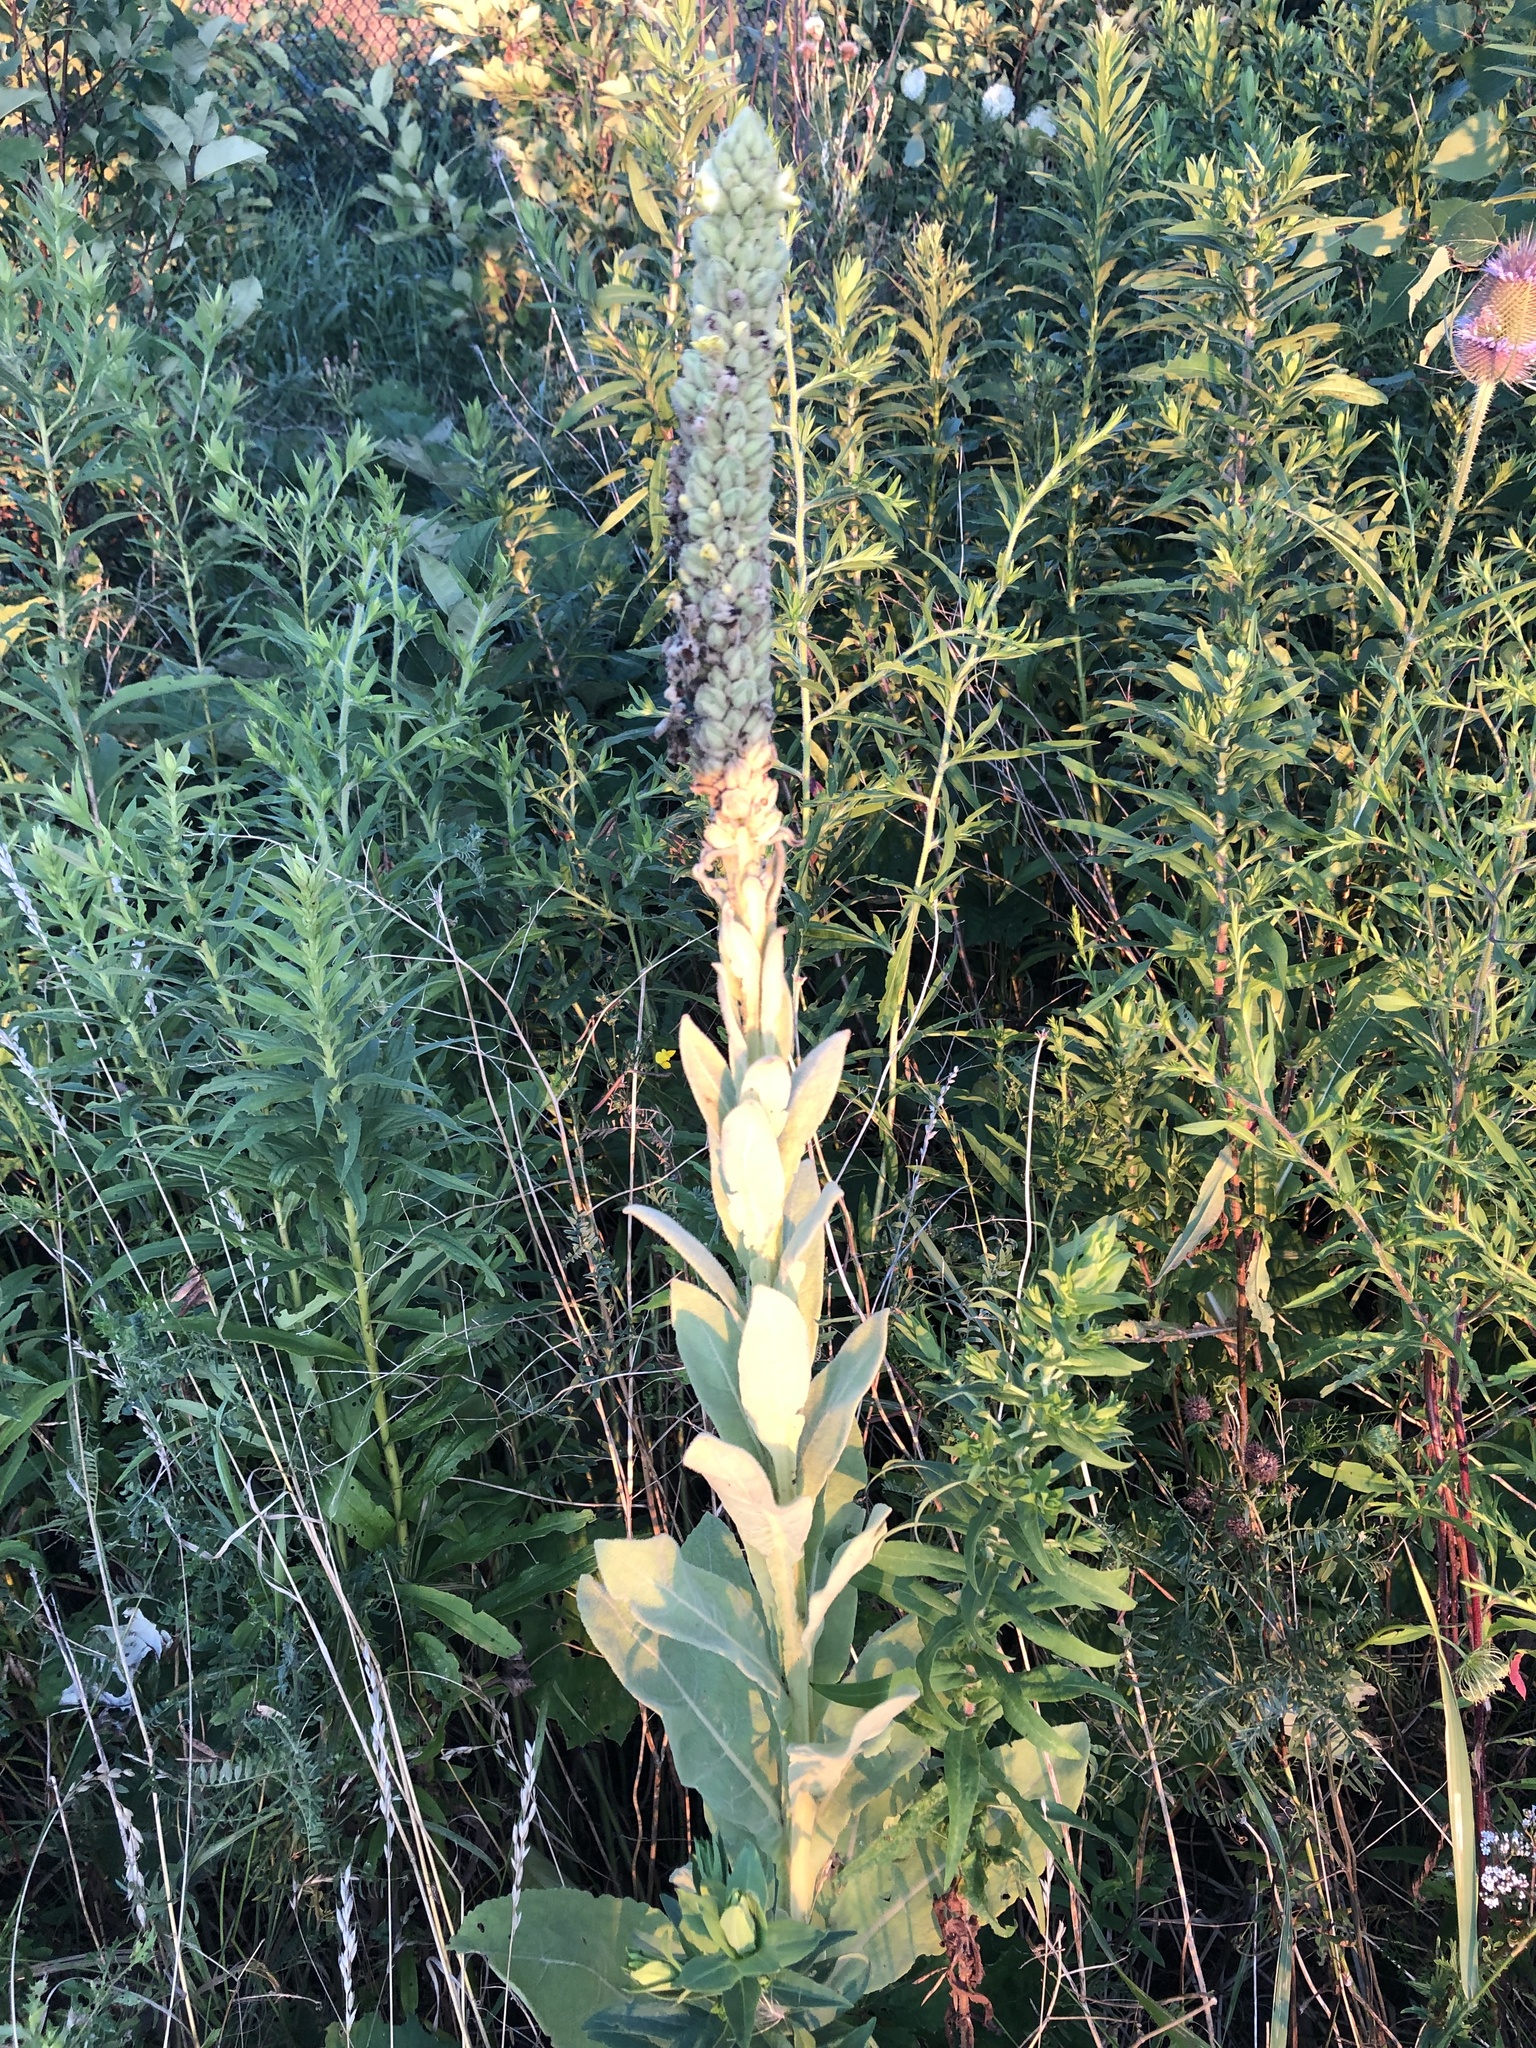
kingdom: Plantae
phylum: Tracheophyta
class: Magnoliopsida
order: Lamiales
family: Scrophulariaceae
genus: Verbascum
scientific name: Verbascum thapsus
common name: Common mullein
